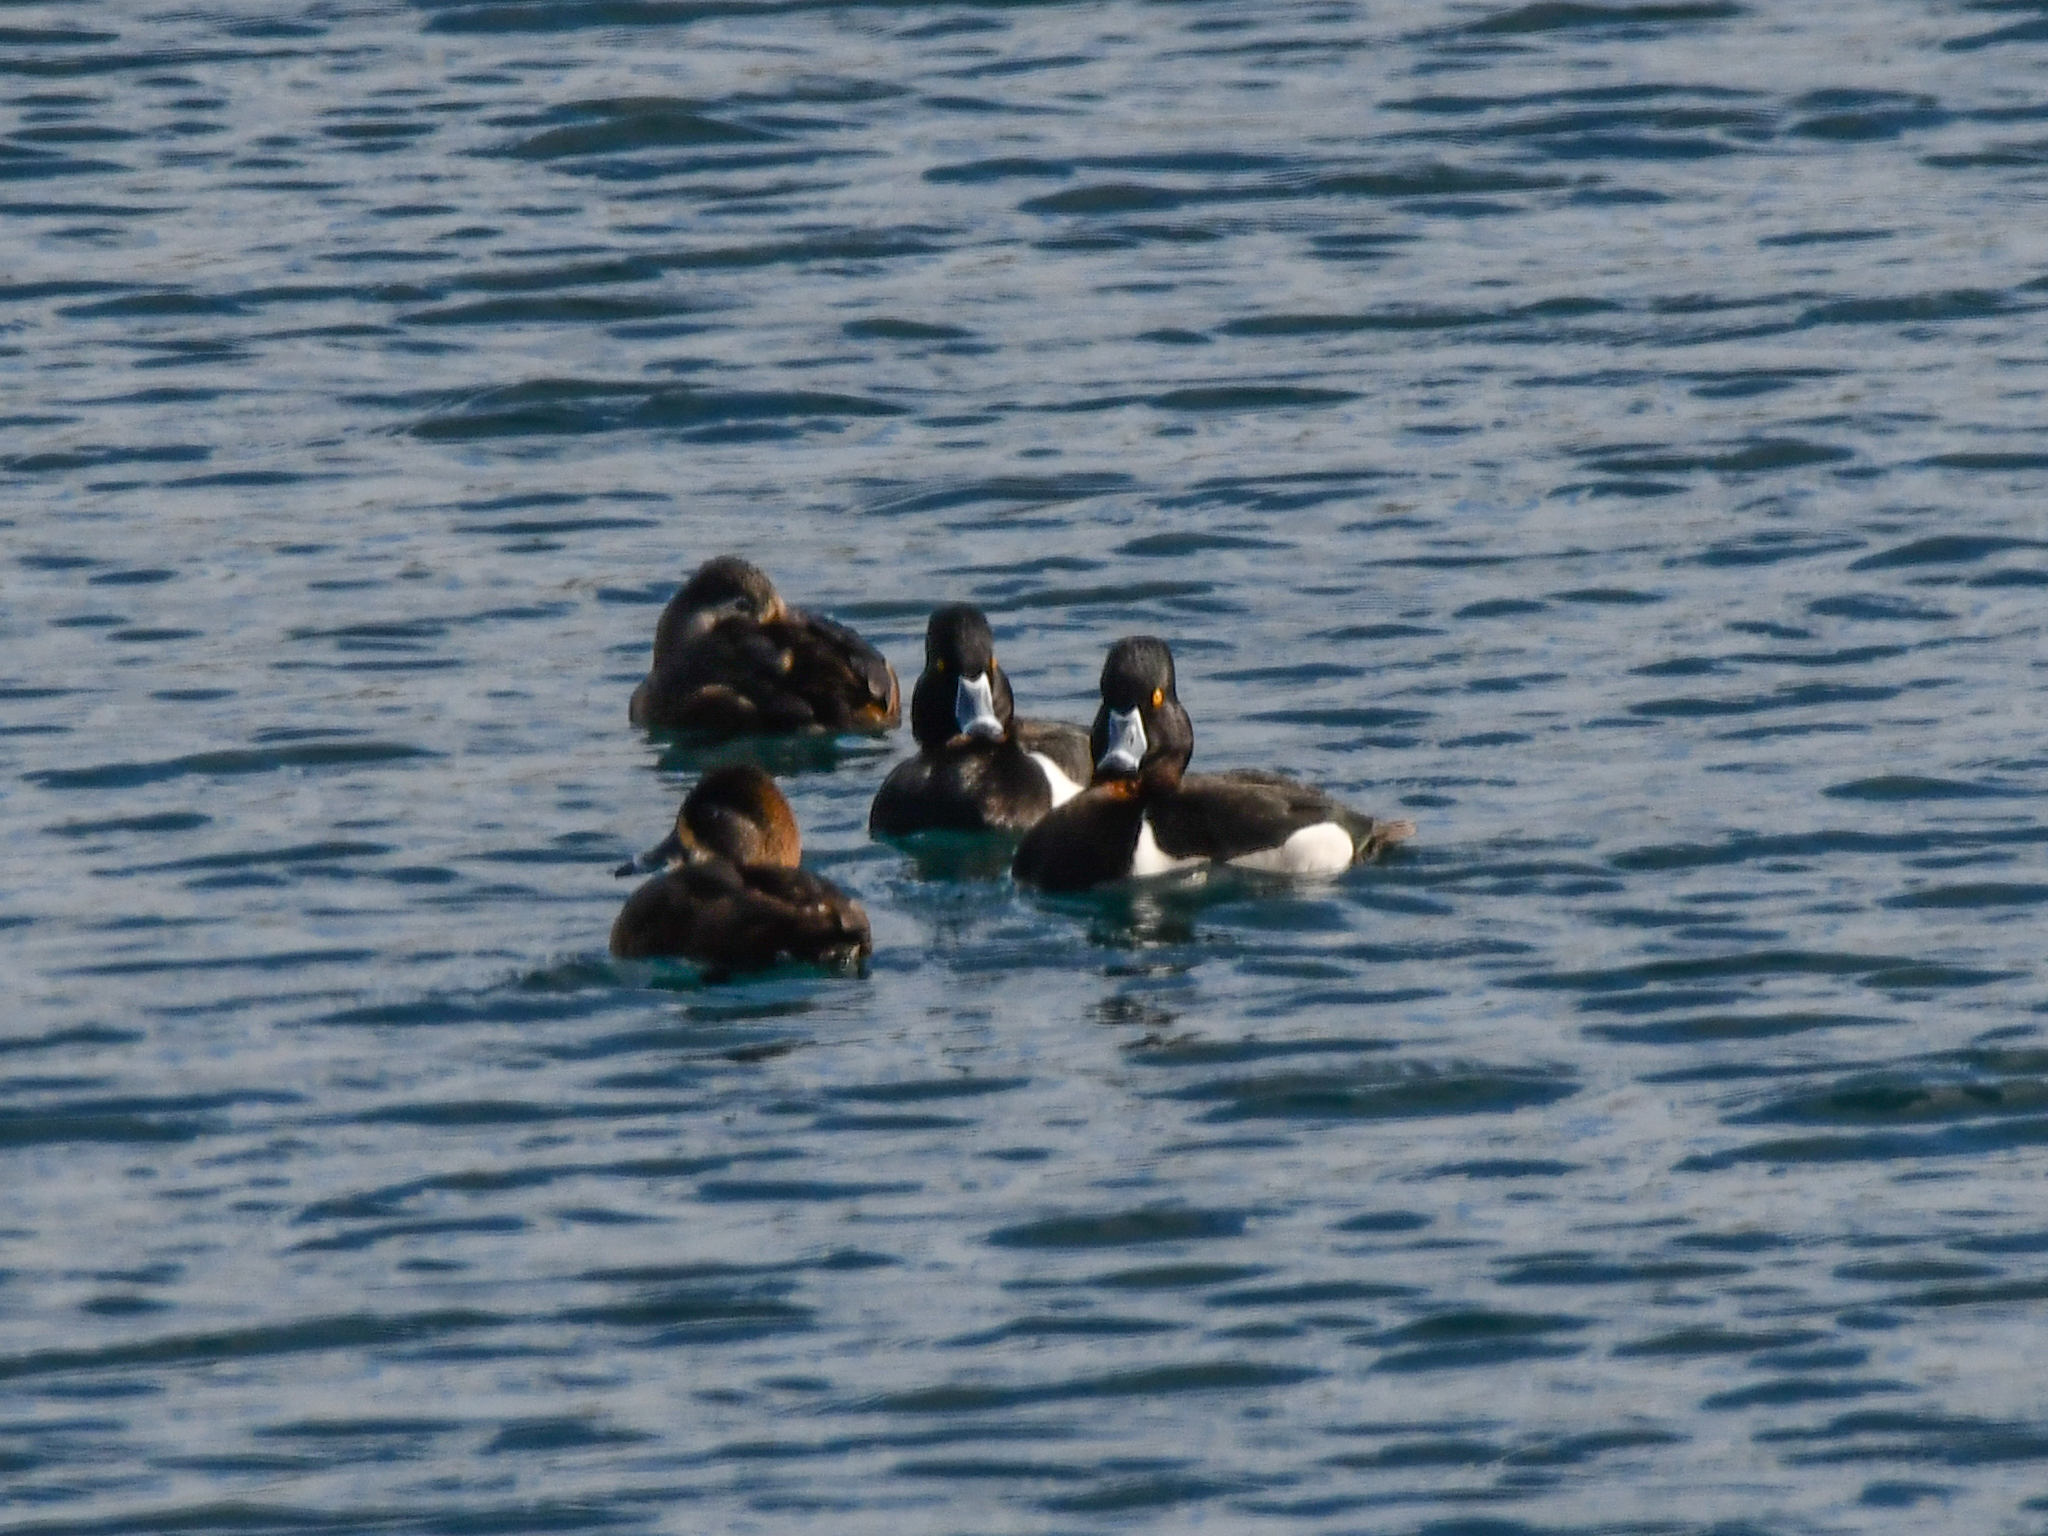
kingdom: Animalia
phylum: Chordata
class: Aves
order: Anseriformes
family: Anatidae
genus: Aythya
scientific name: Aythya collaris
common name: Ring-necked duck
